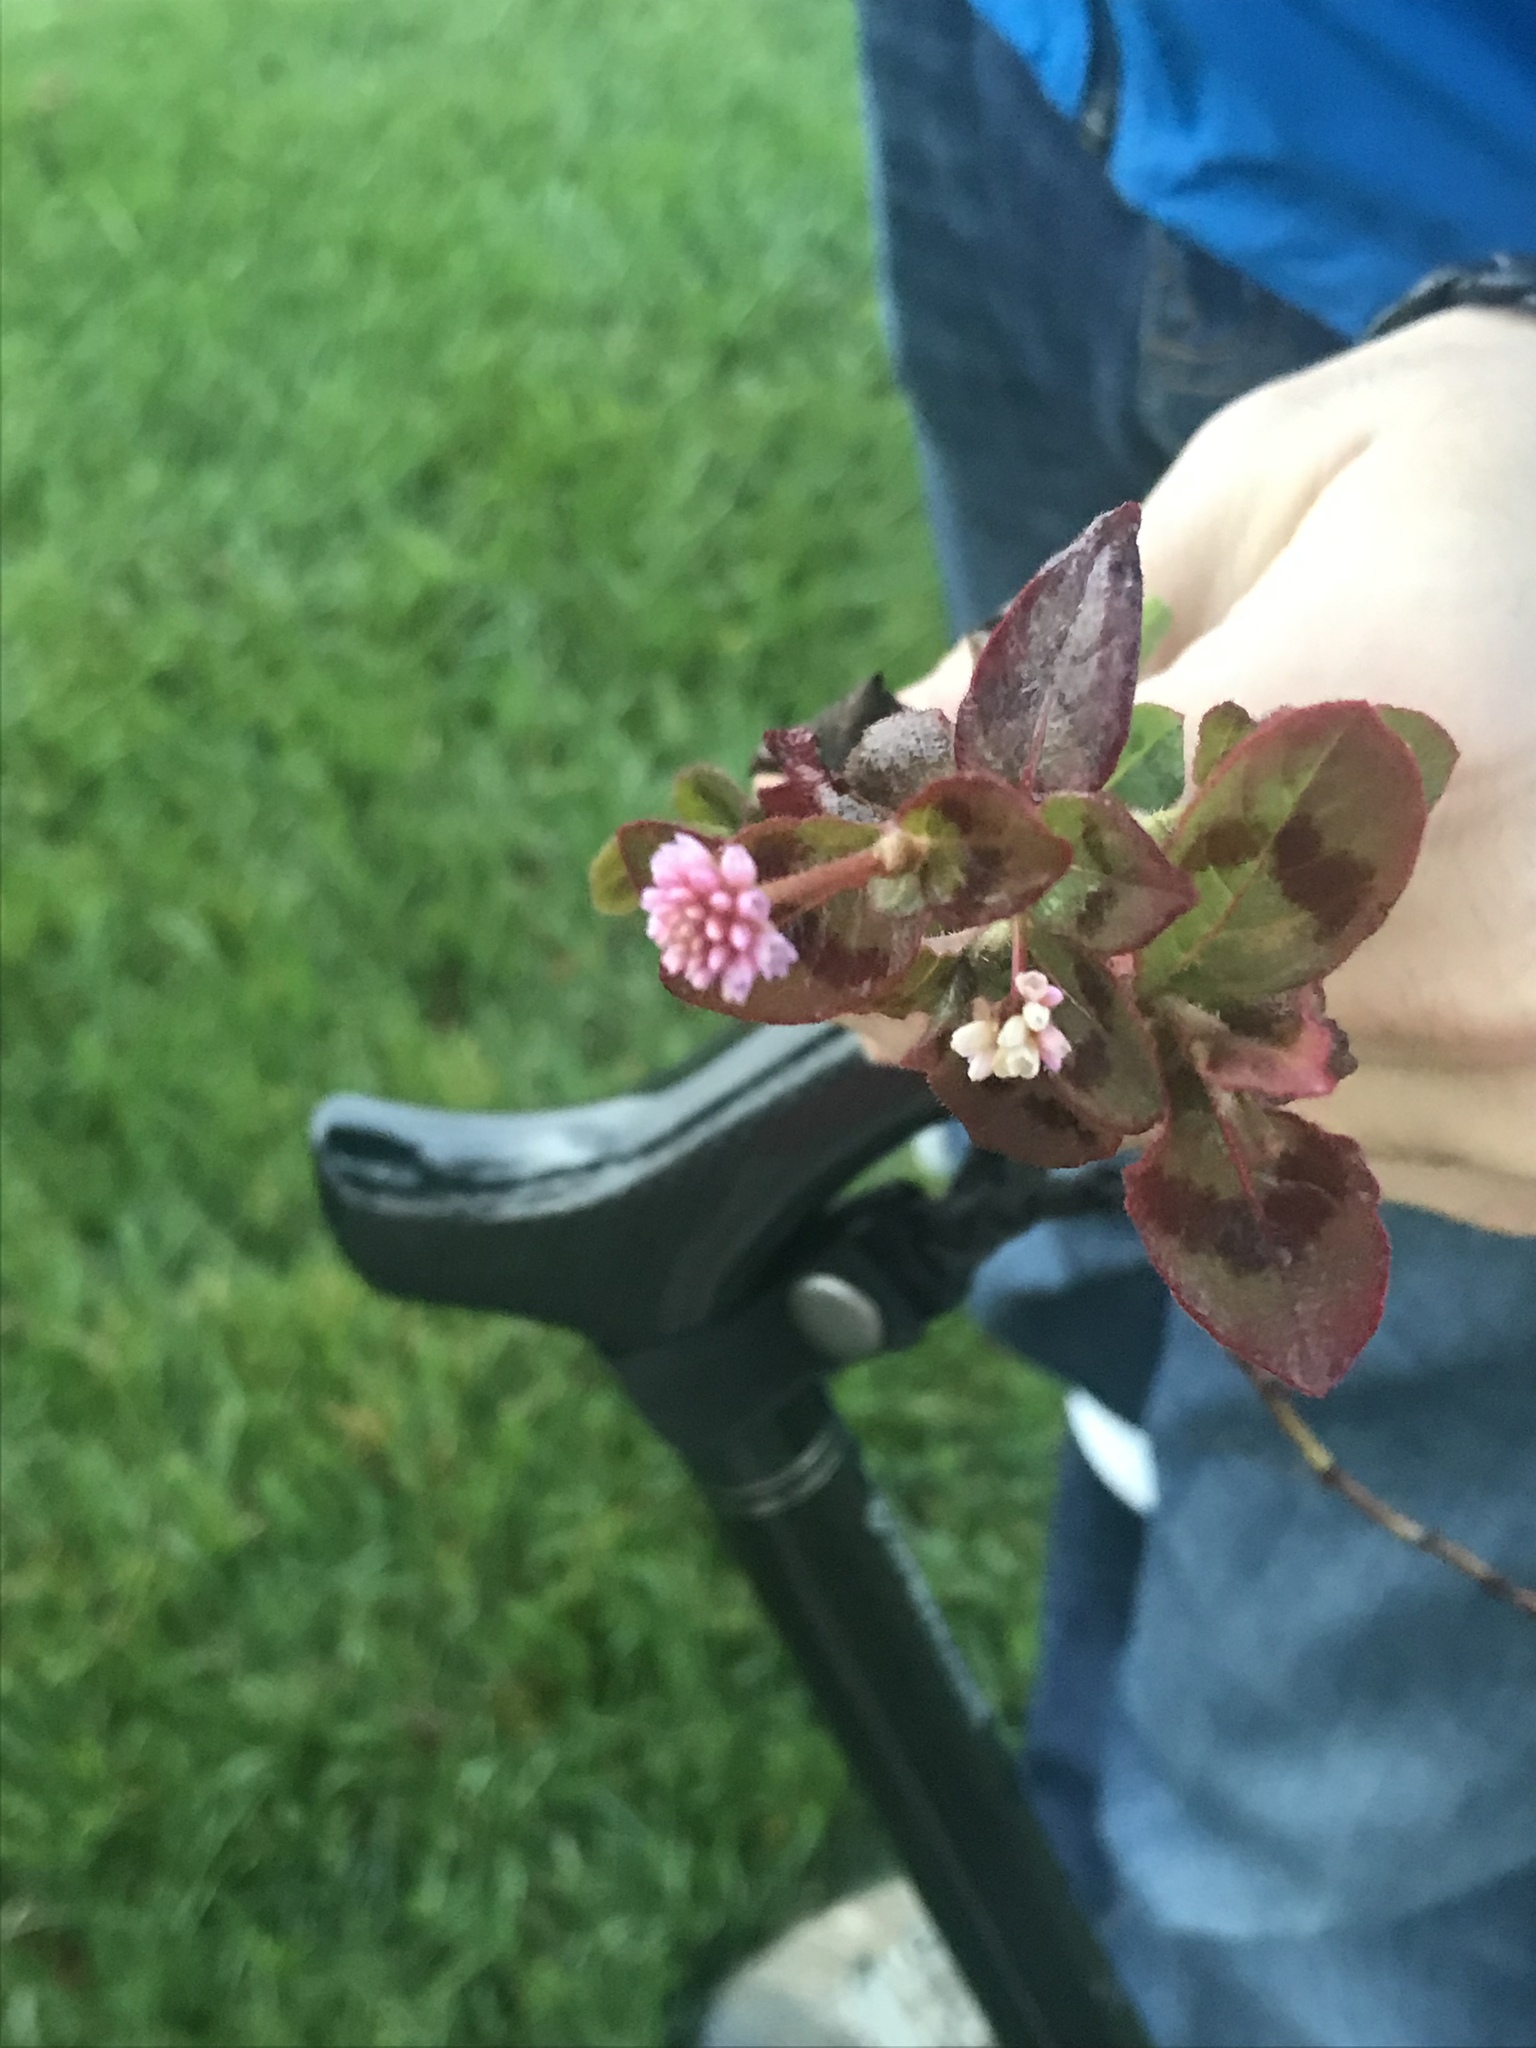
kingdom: Plantae
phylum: Tracheophyta
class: Magnoliopsida
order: Caryophyllales
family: Polygonaceae
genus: Persicaria
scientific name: Persicaria capitata
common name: Pinkhead smartweed
